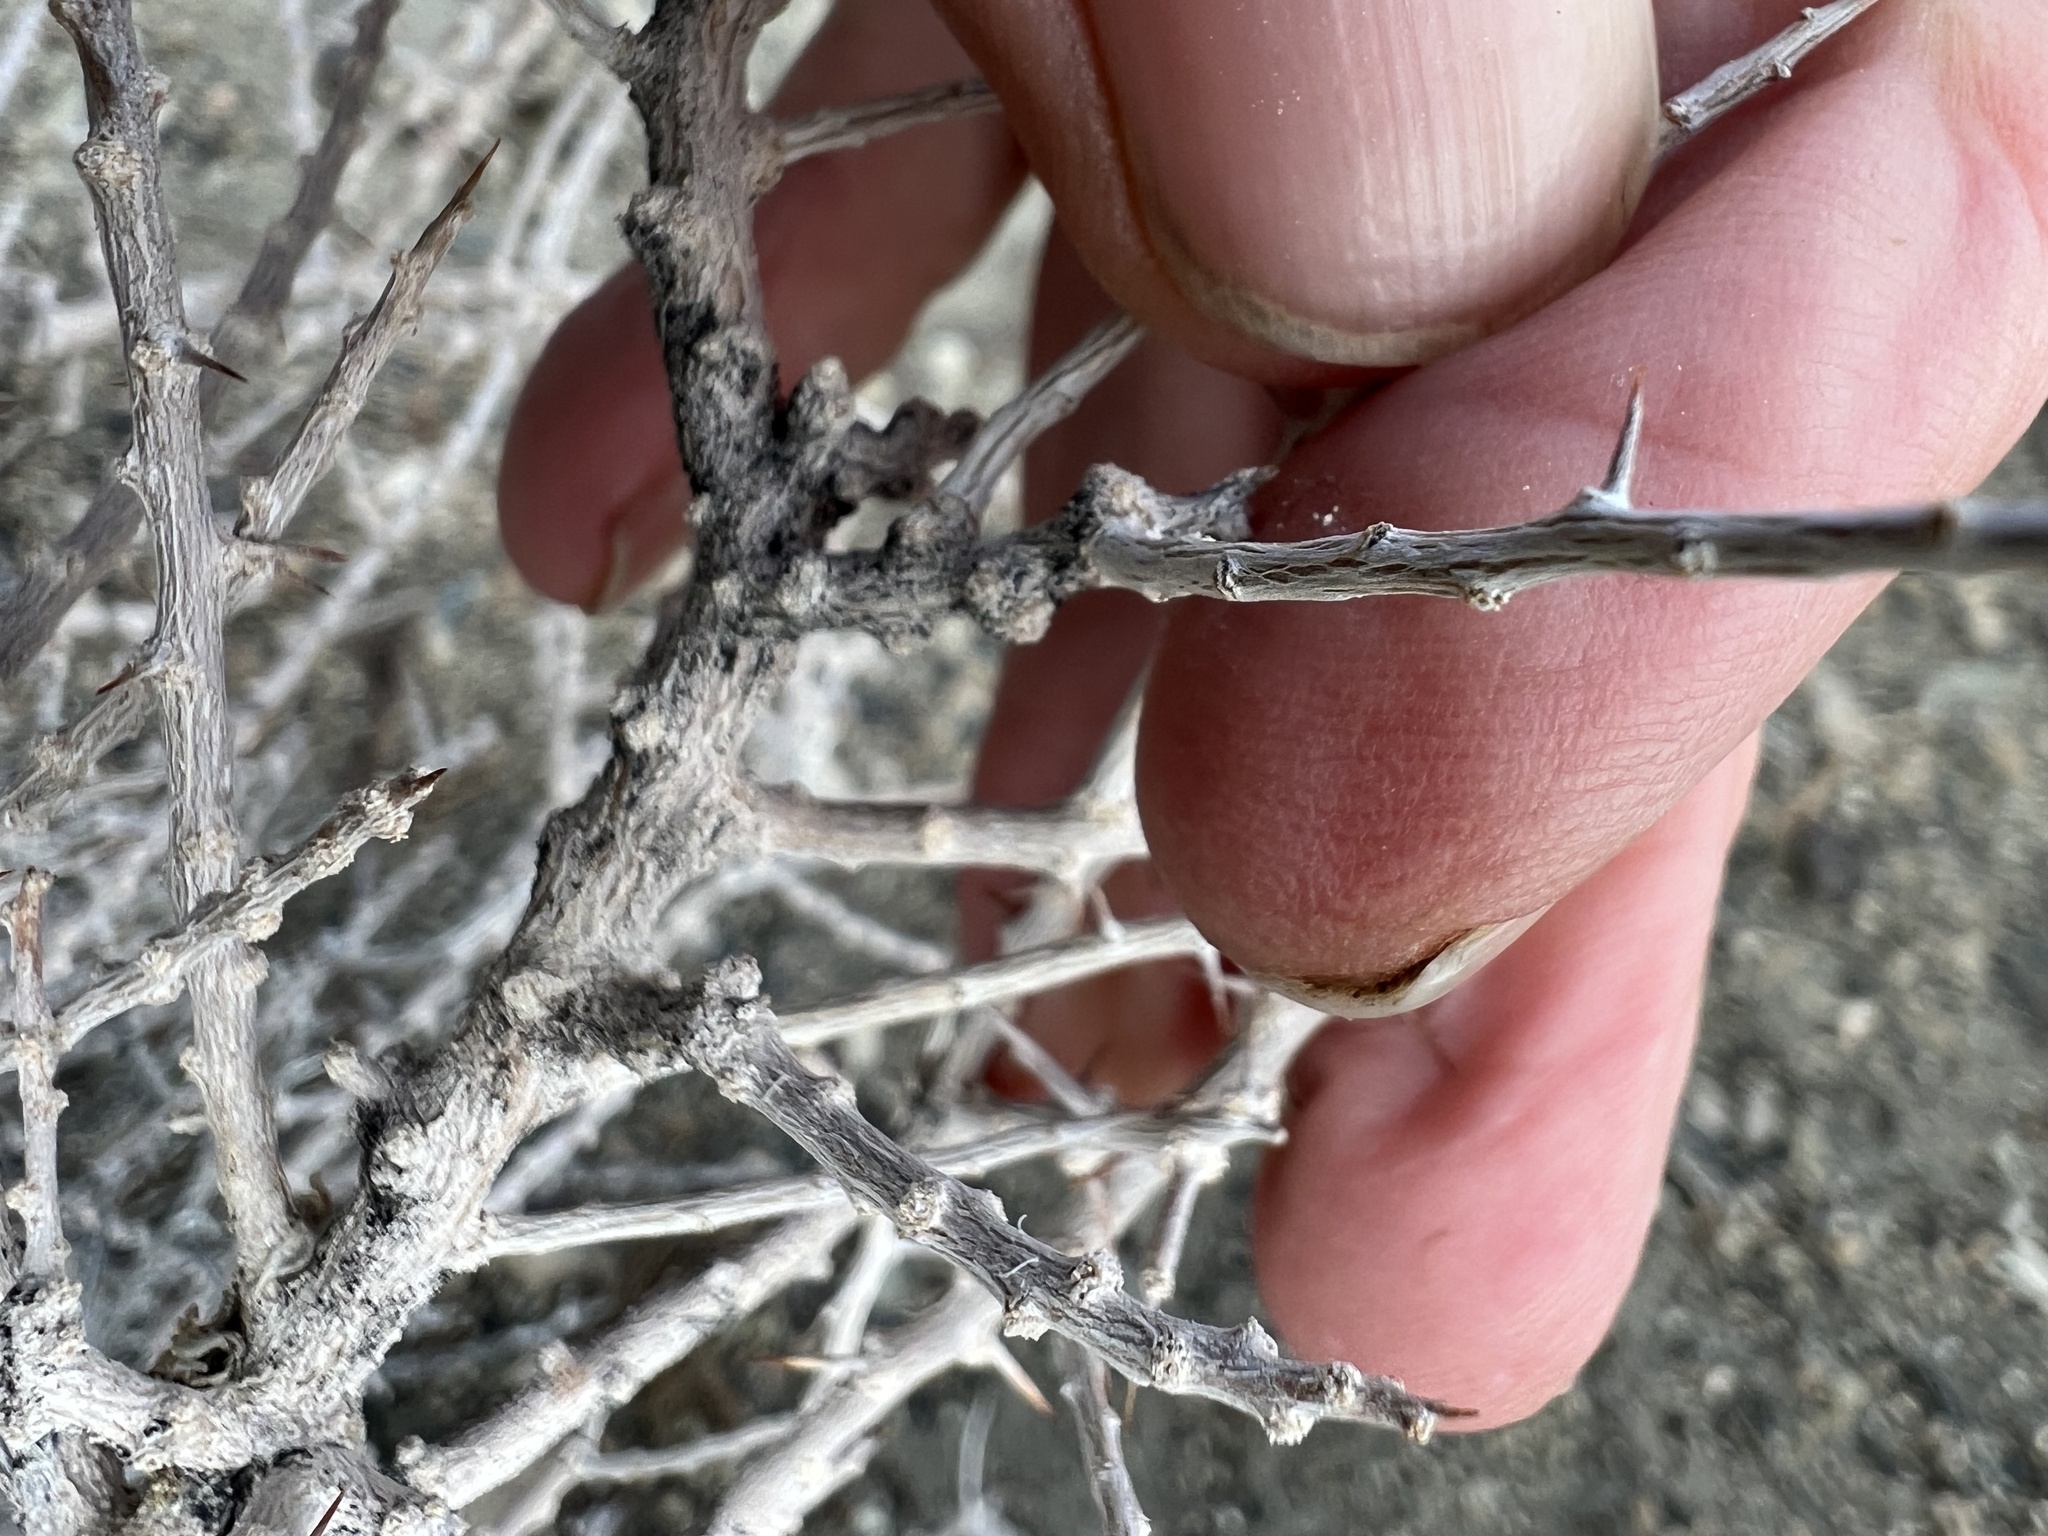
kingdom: Plantae
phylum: Tracheophyta
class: Magnoliopsida
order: Caryophyllales
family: Amaranthaceae
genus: Grayia
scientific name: Grayia spinosa
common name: Spiny hopsage
